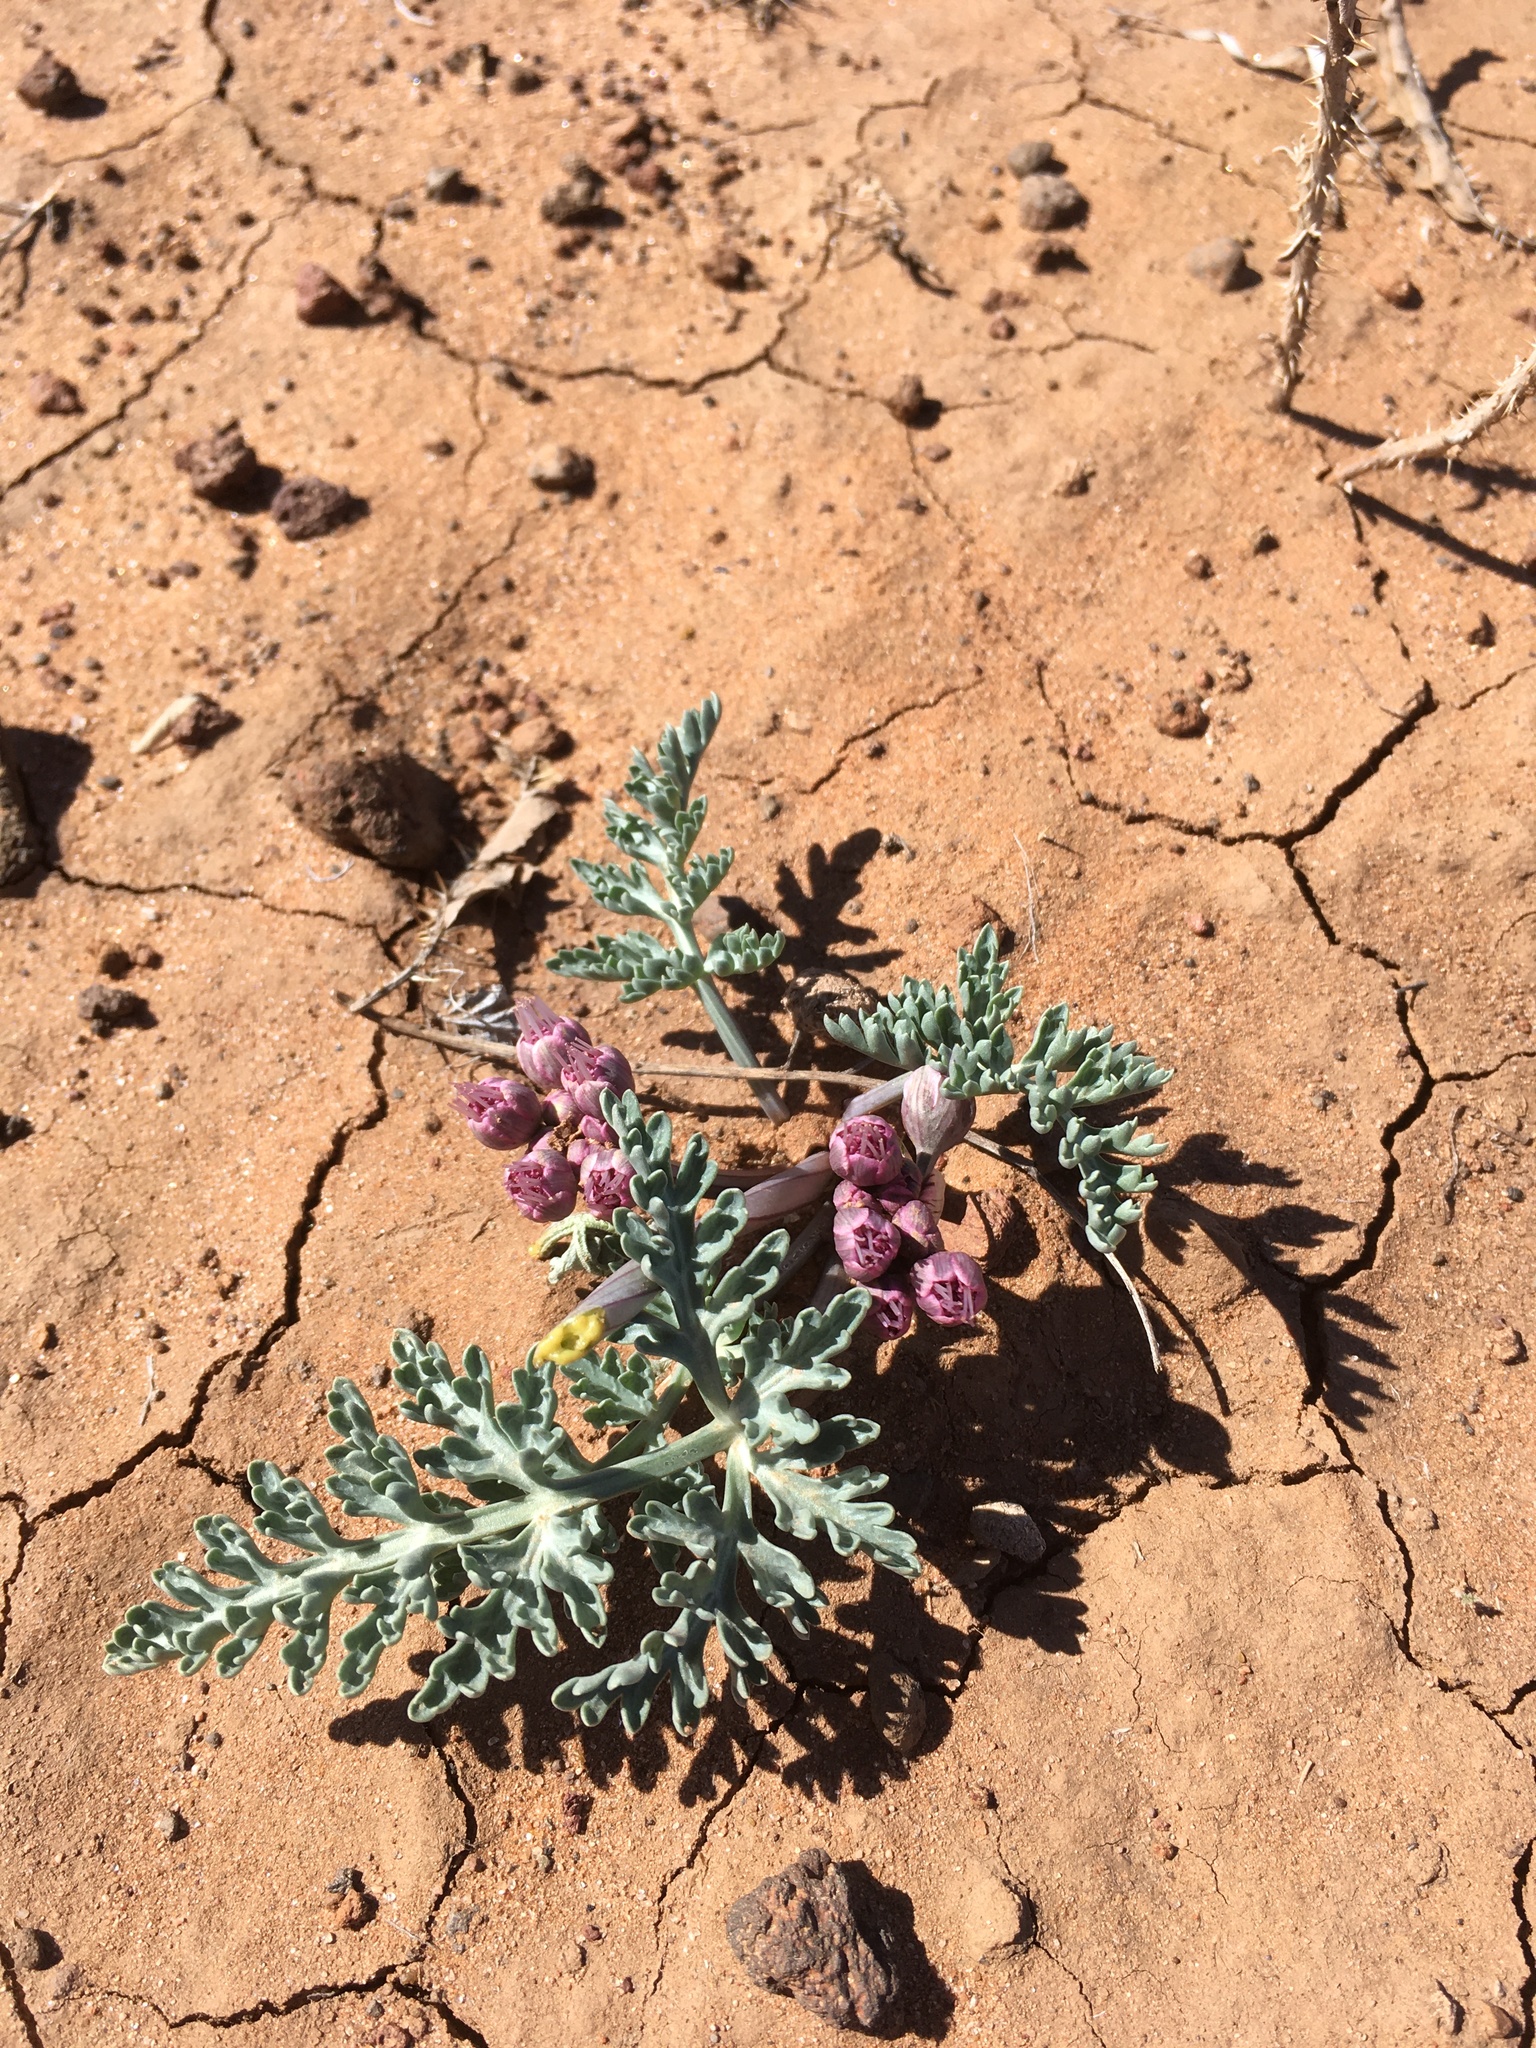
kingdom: Plantae
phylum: Tracheophyta
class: Magnoliopsida
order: Apiales
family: Apiaceae
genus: Vesper
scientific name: Vesper multinervatus
